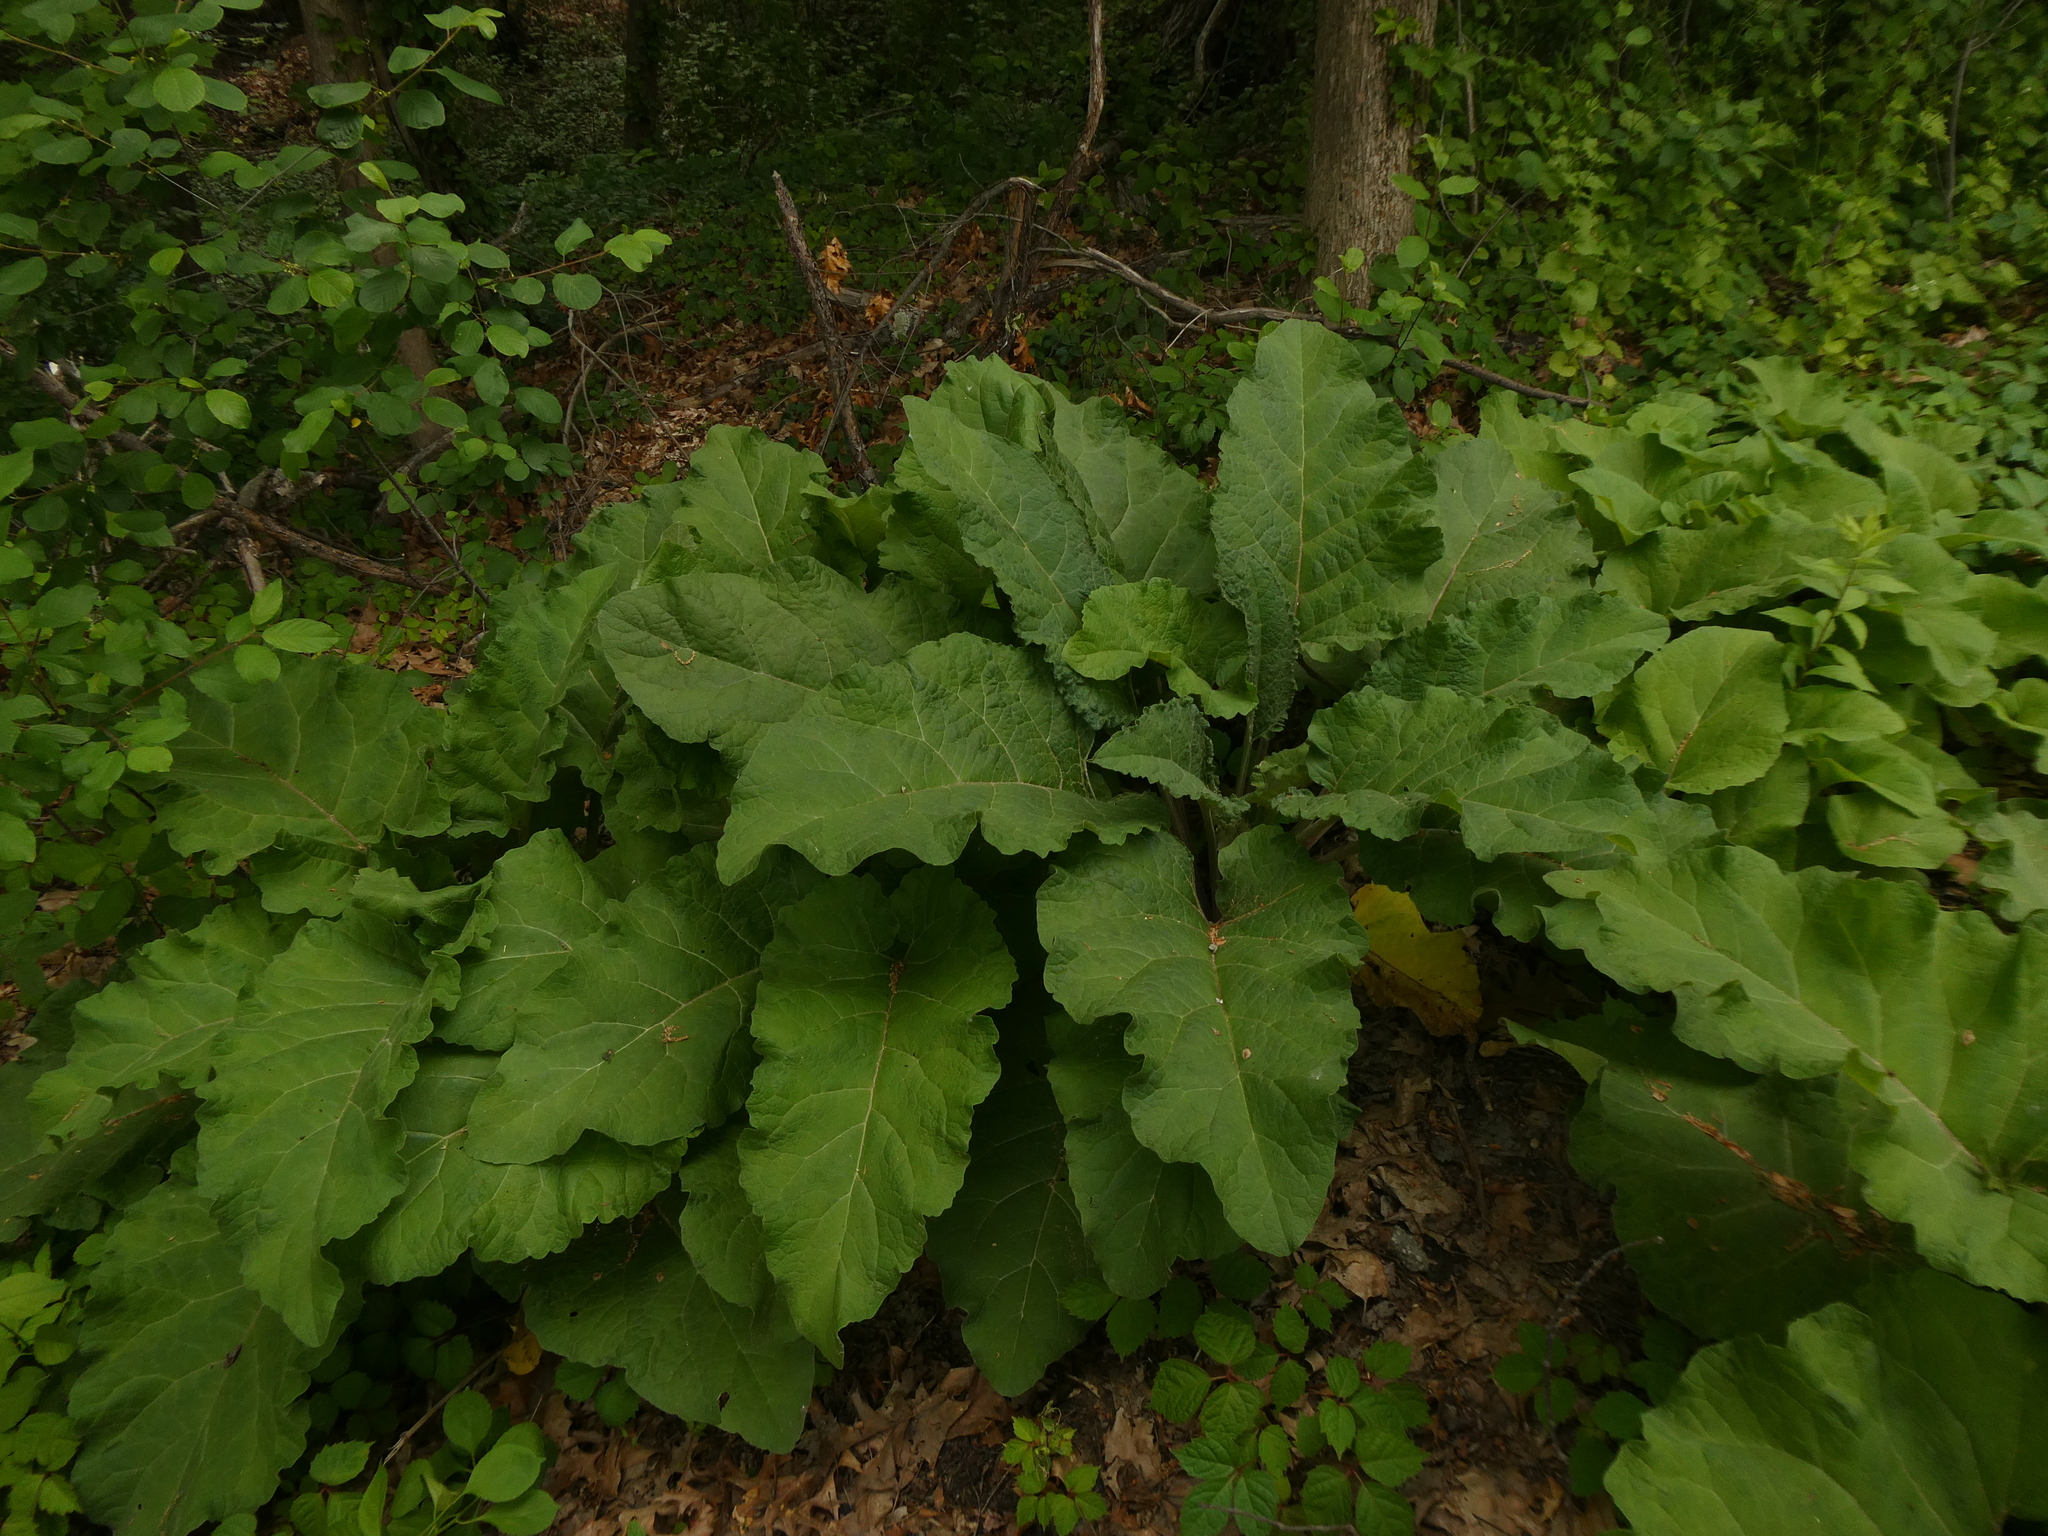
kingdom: Plantae
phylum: Tracheophyta
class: Magnoliopsida
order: Asterales
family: Asteraceae
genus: Arctium
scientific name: Arctium
